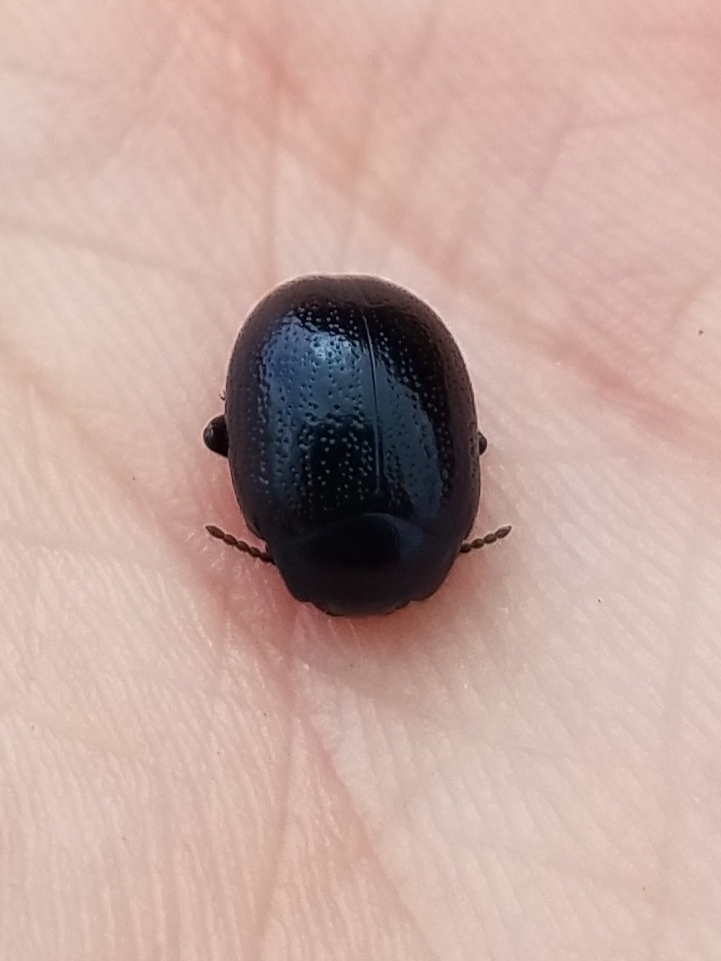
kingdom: Animalia
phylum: Arthropoda
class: Insecta
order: Coleoptera
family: Chrysomelidae
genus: Chrysolina
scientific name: Chrysolina haemoptera
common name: Plantain leaf beetle
